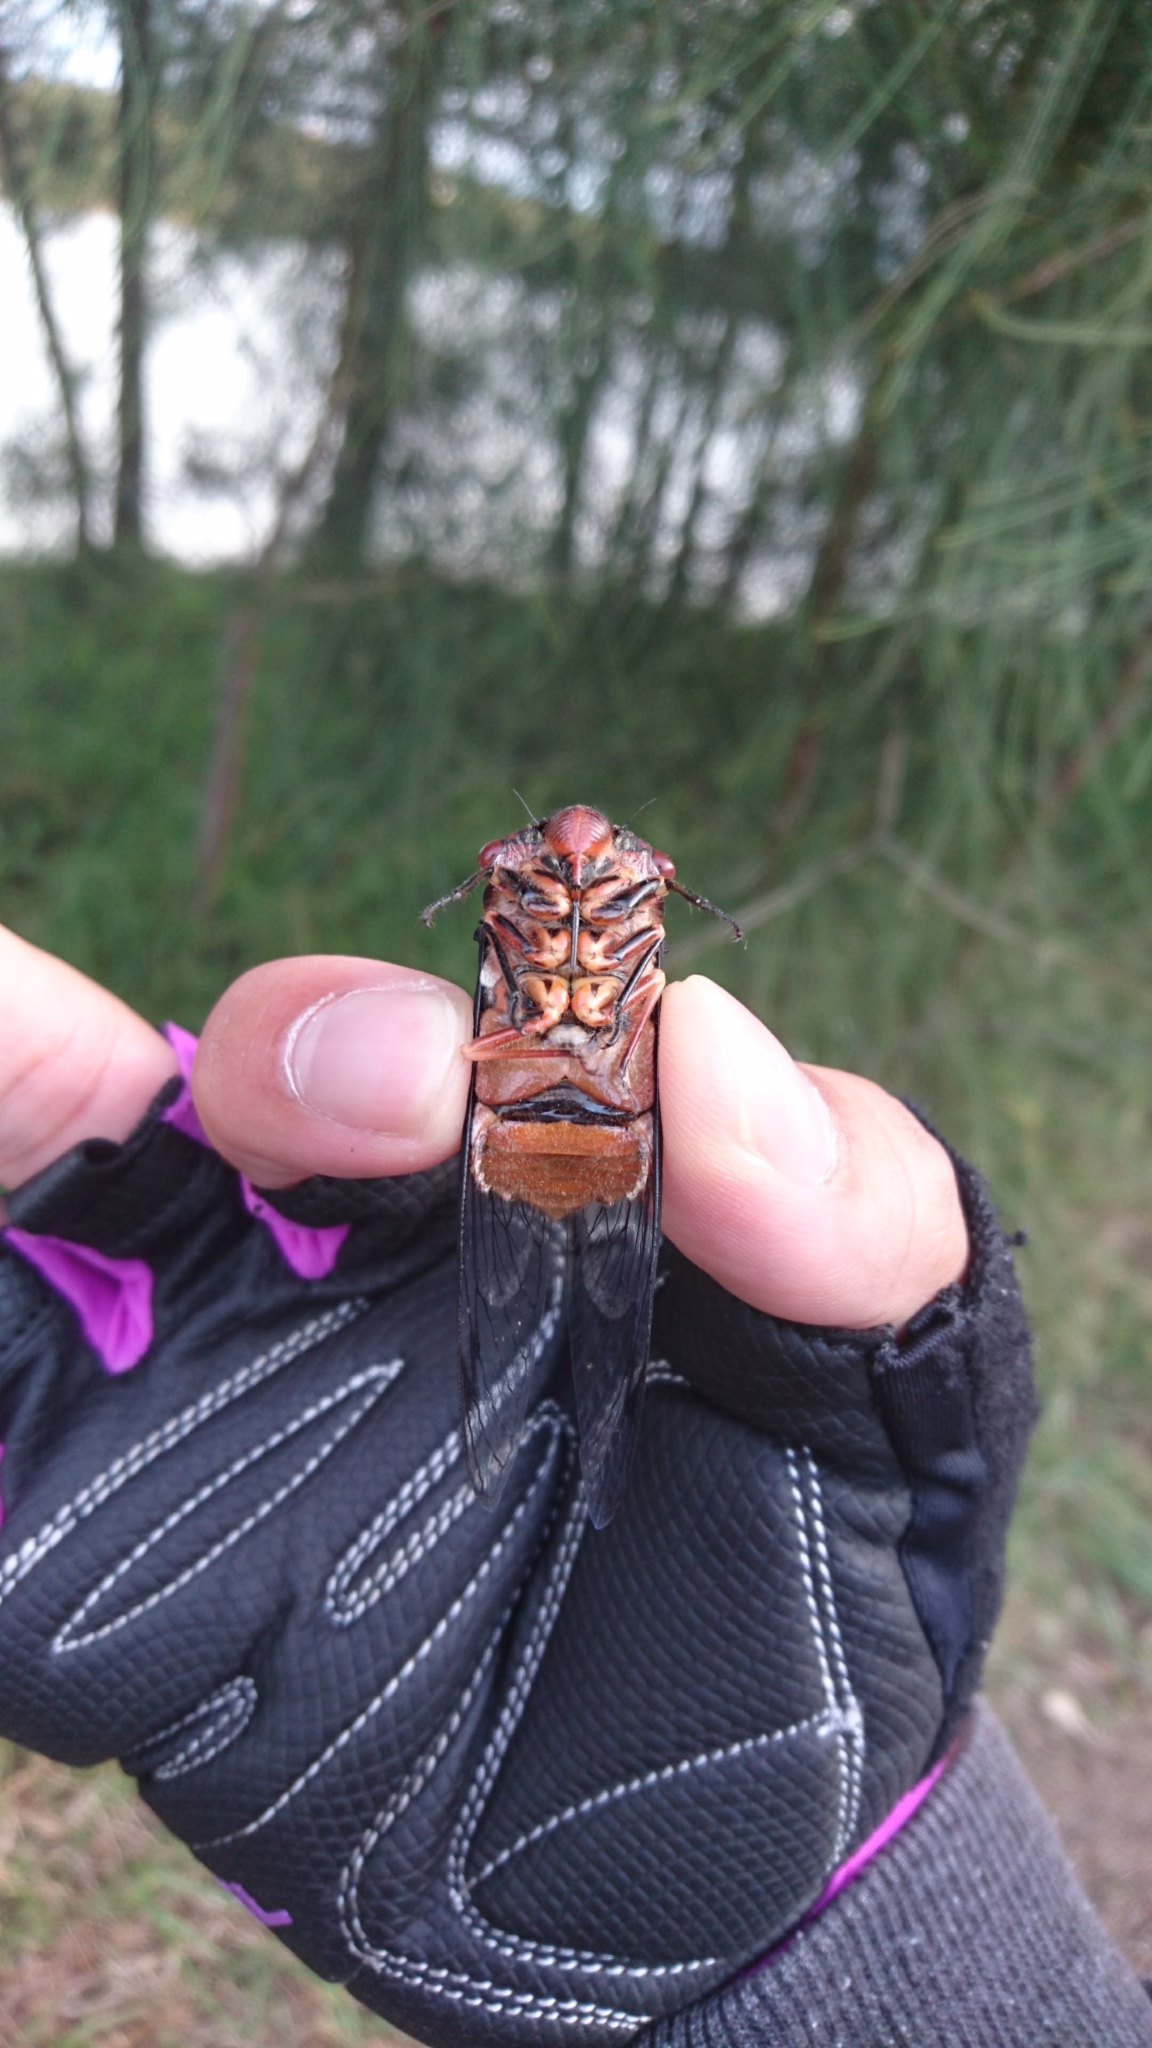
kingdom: Animalia
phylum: Arthropoda
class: Insecta
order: Hemiptera
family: Cicadidae
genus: Psaltoda
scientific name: Psaltoda plaga
